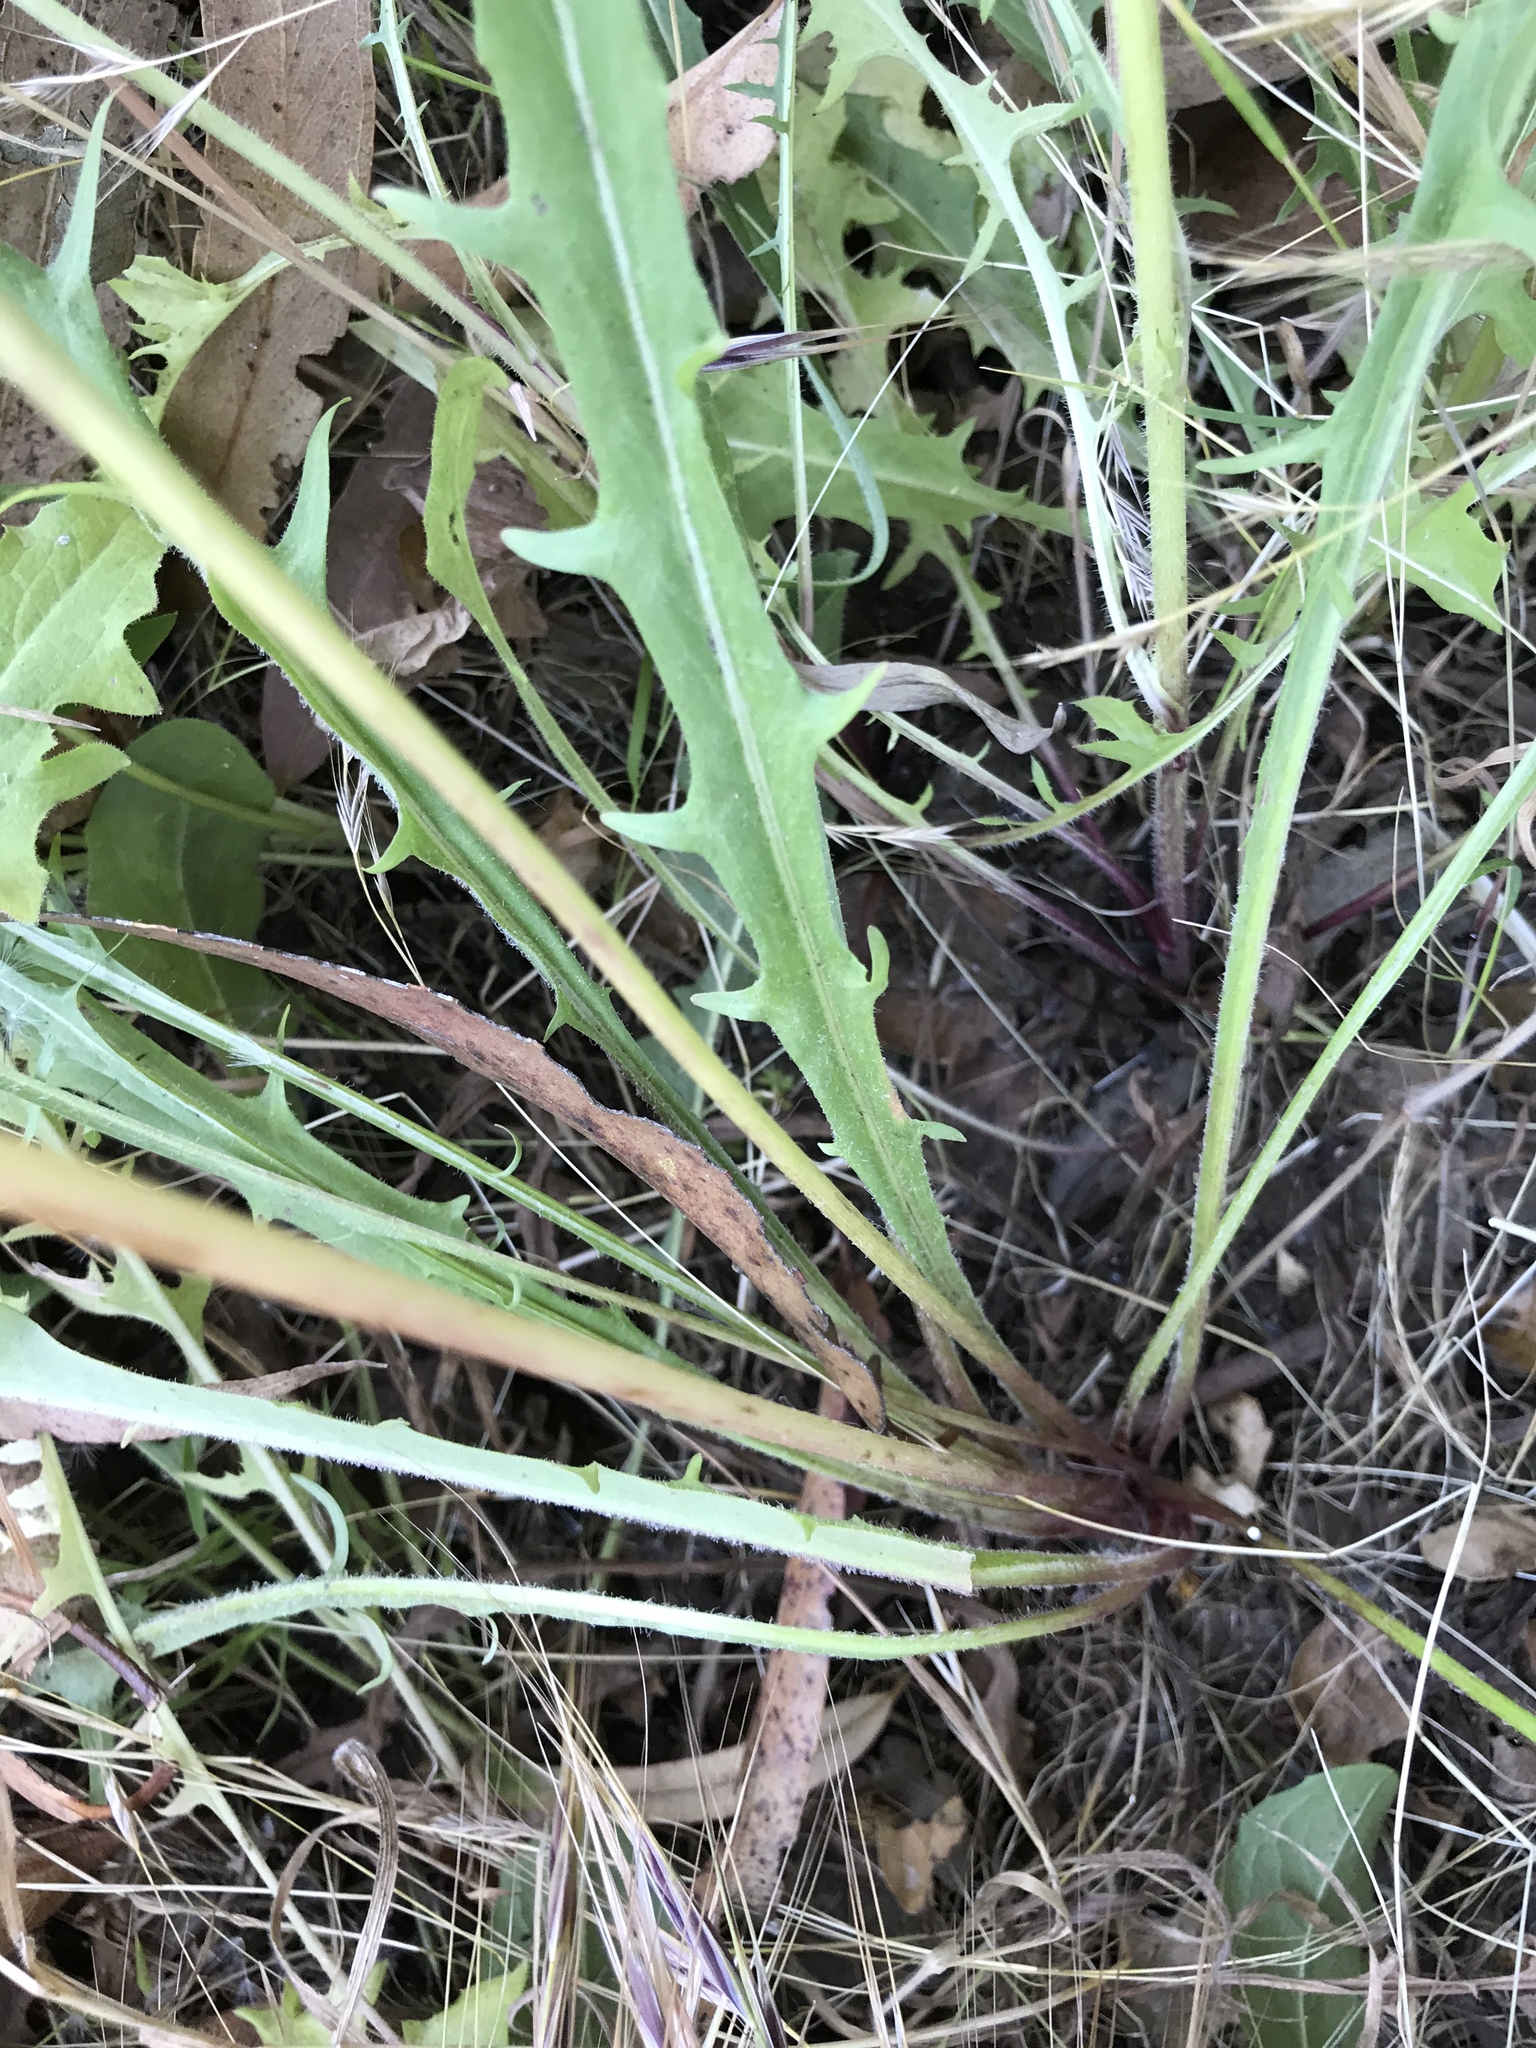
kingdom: Plantae
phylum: Tracheophyta
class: Magnoliopsida
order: Asterales
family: Asteraceae
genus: Agoseris
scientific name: Agoseris grandiflora
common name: Grassland agoseris
